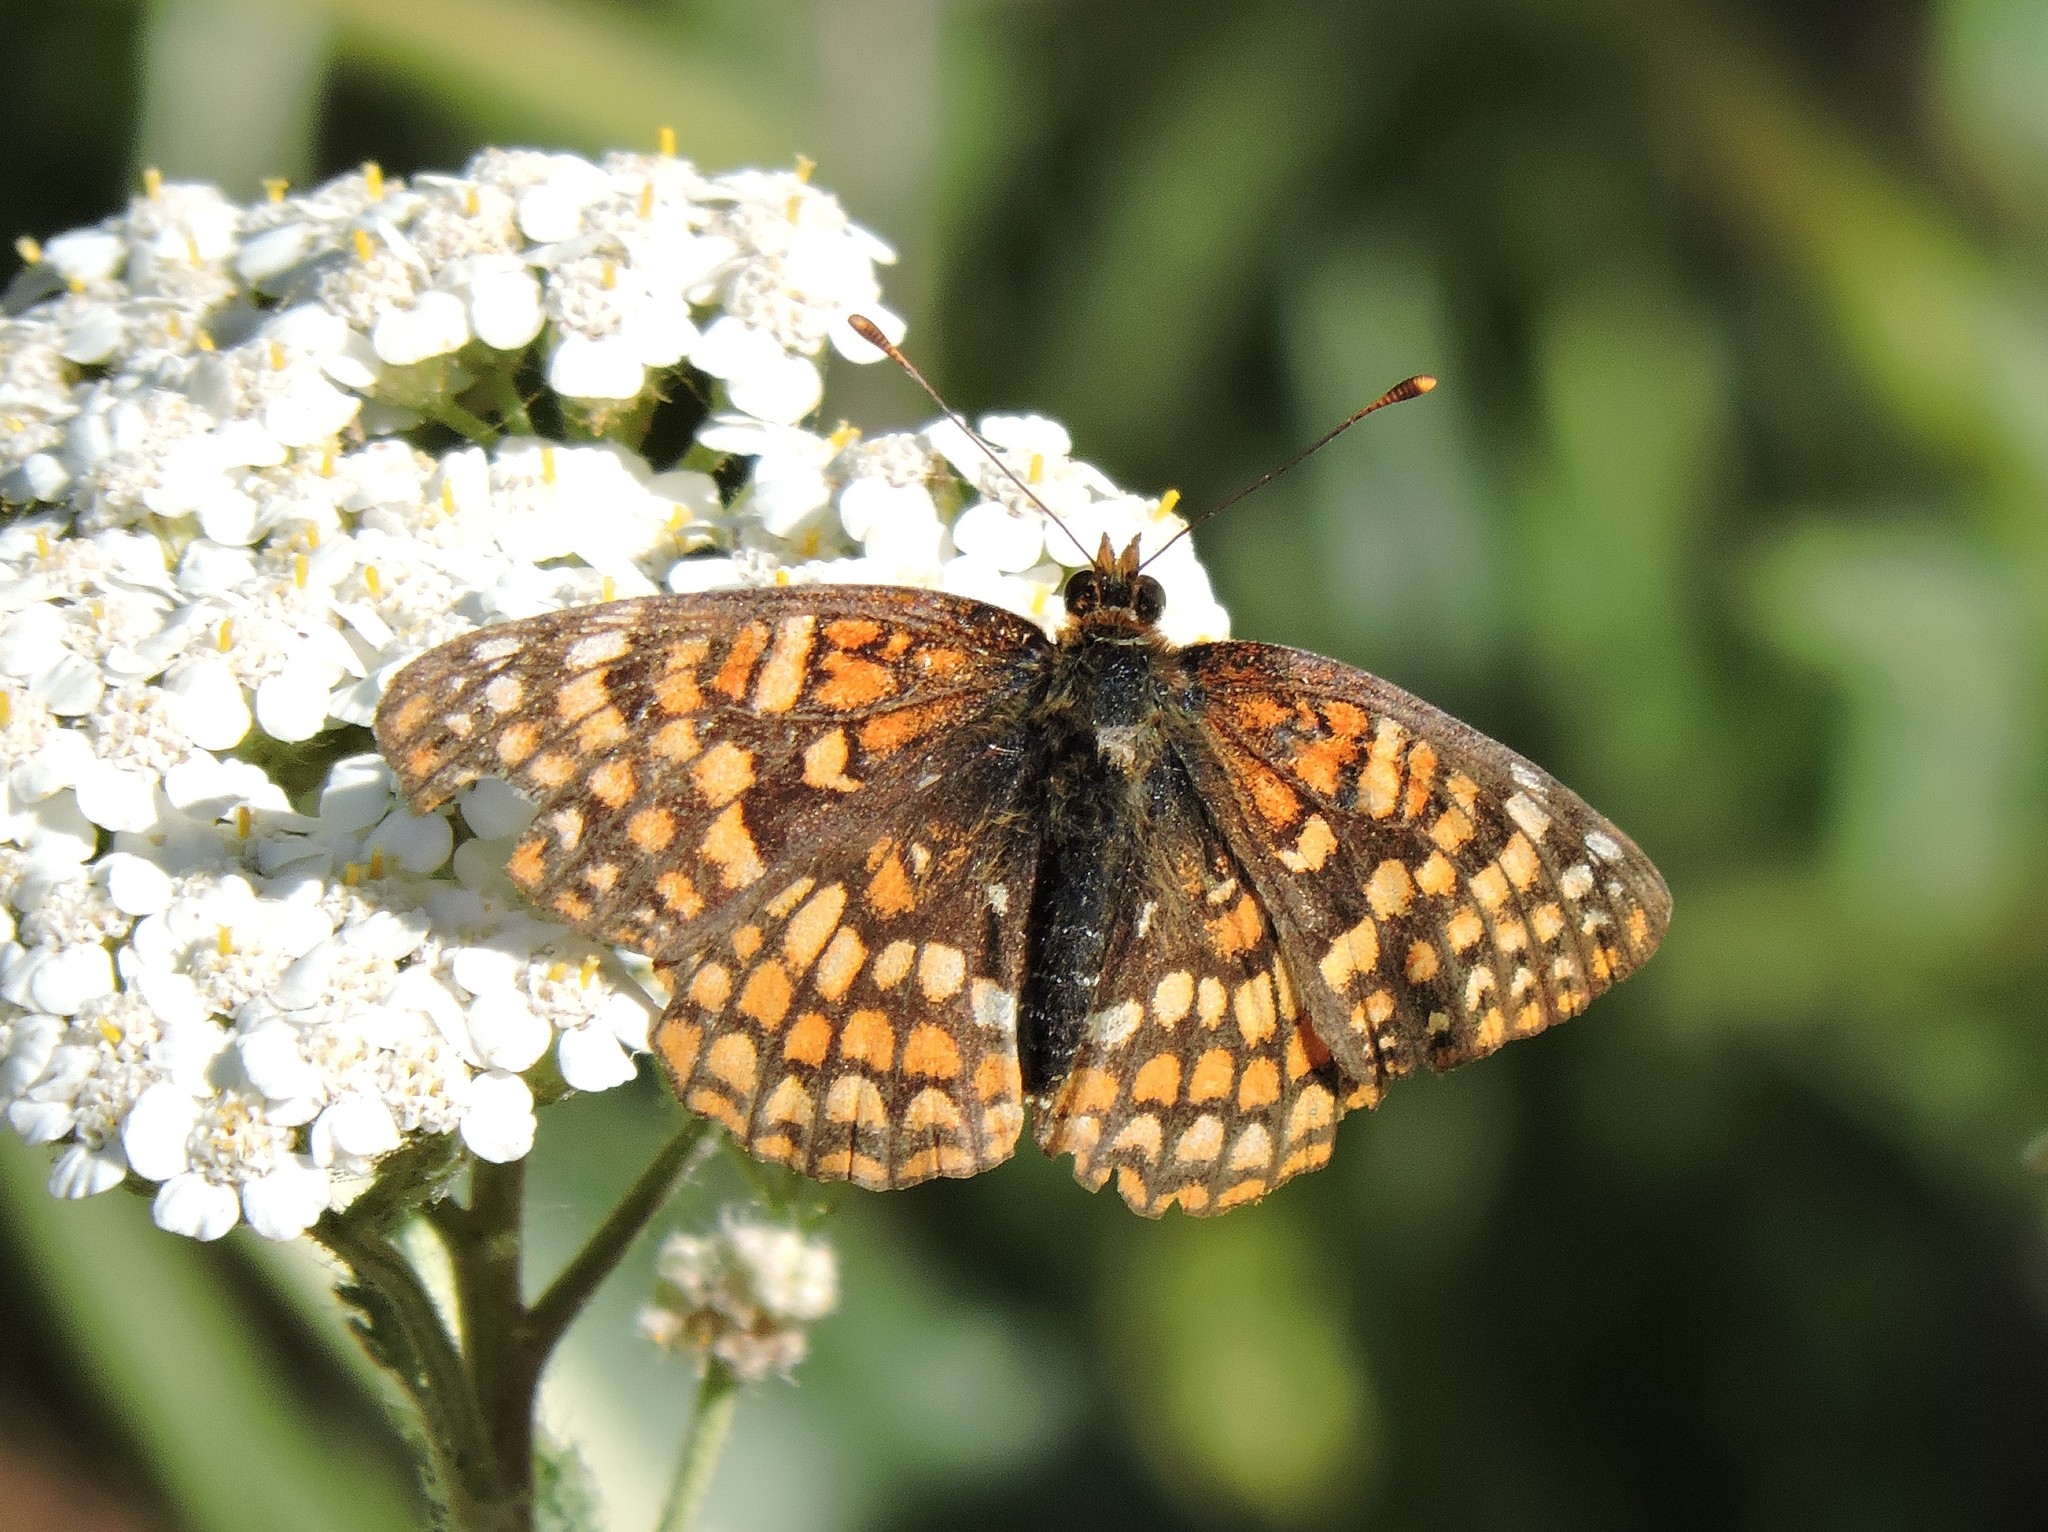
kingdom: Animalia
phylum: Arthropoda
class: Insecta
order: Lepidoptera
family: Nymphalidae
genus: Chlosyne
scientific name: Chlosyne palla
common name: Northern checkerspot
